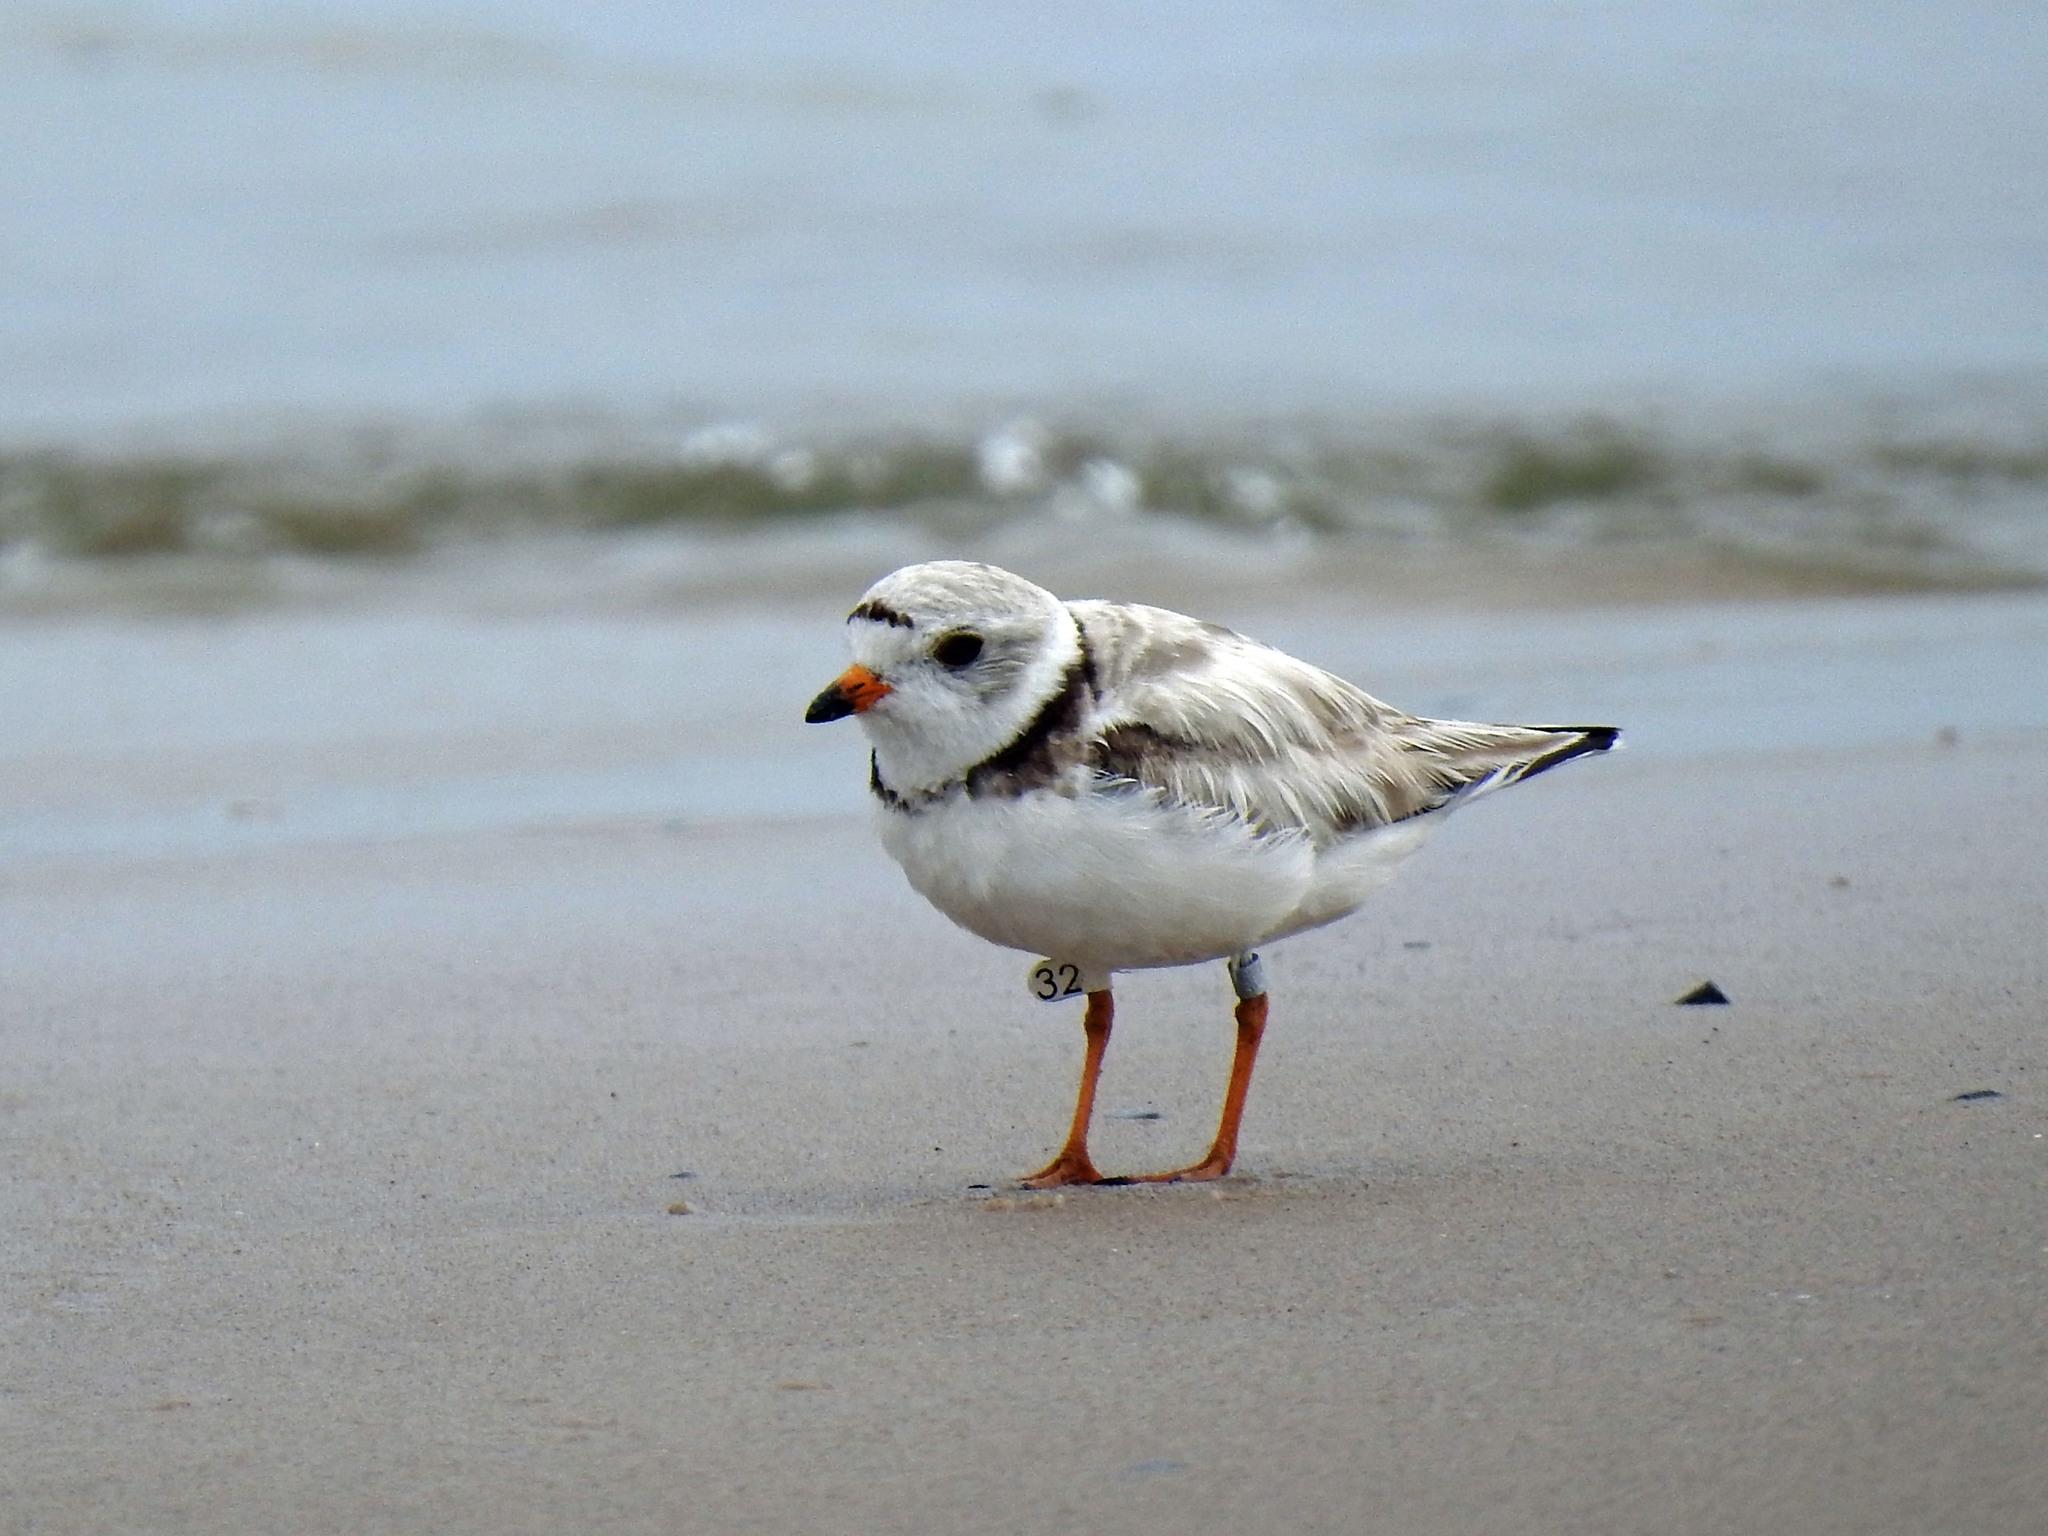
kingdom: Animalia
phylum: Chordata
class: Aves
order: Charadriiformes
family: Charadriidae
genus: Charadrius
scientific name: Charadrius melodus
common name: Piping plover
